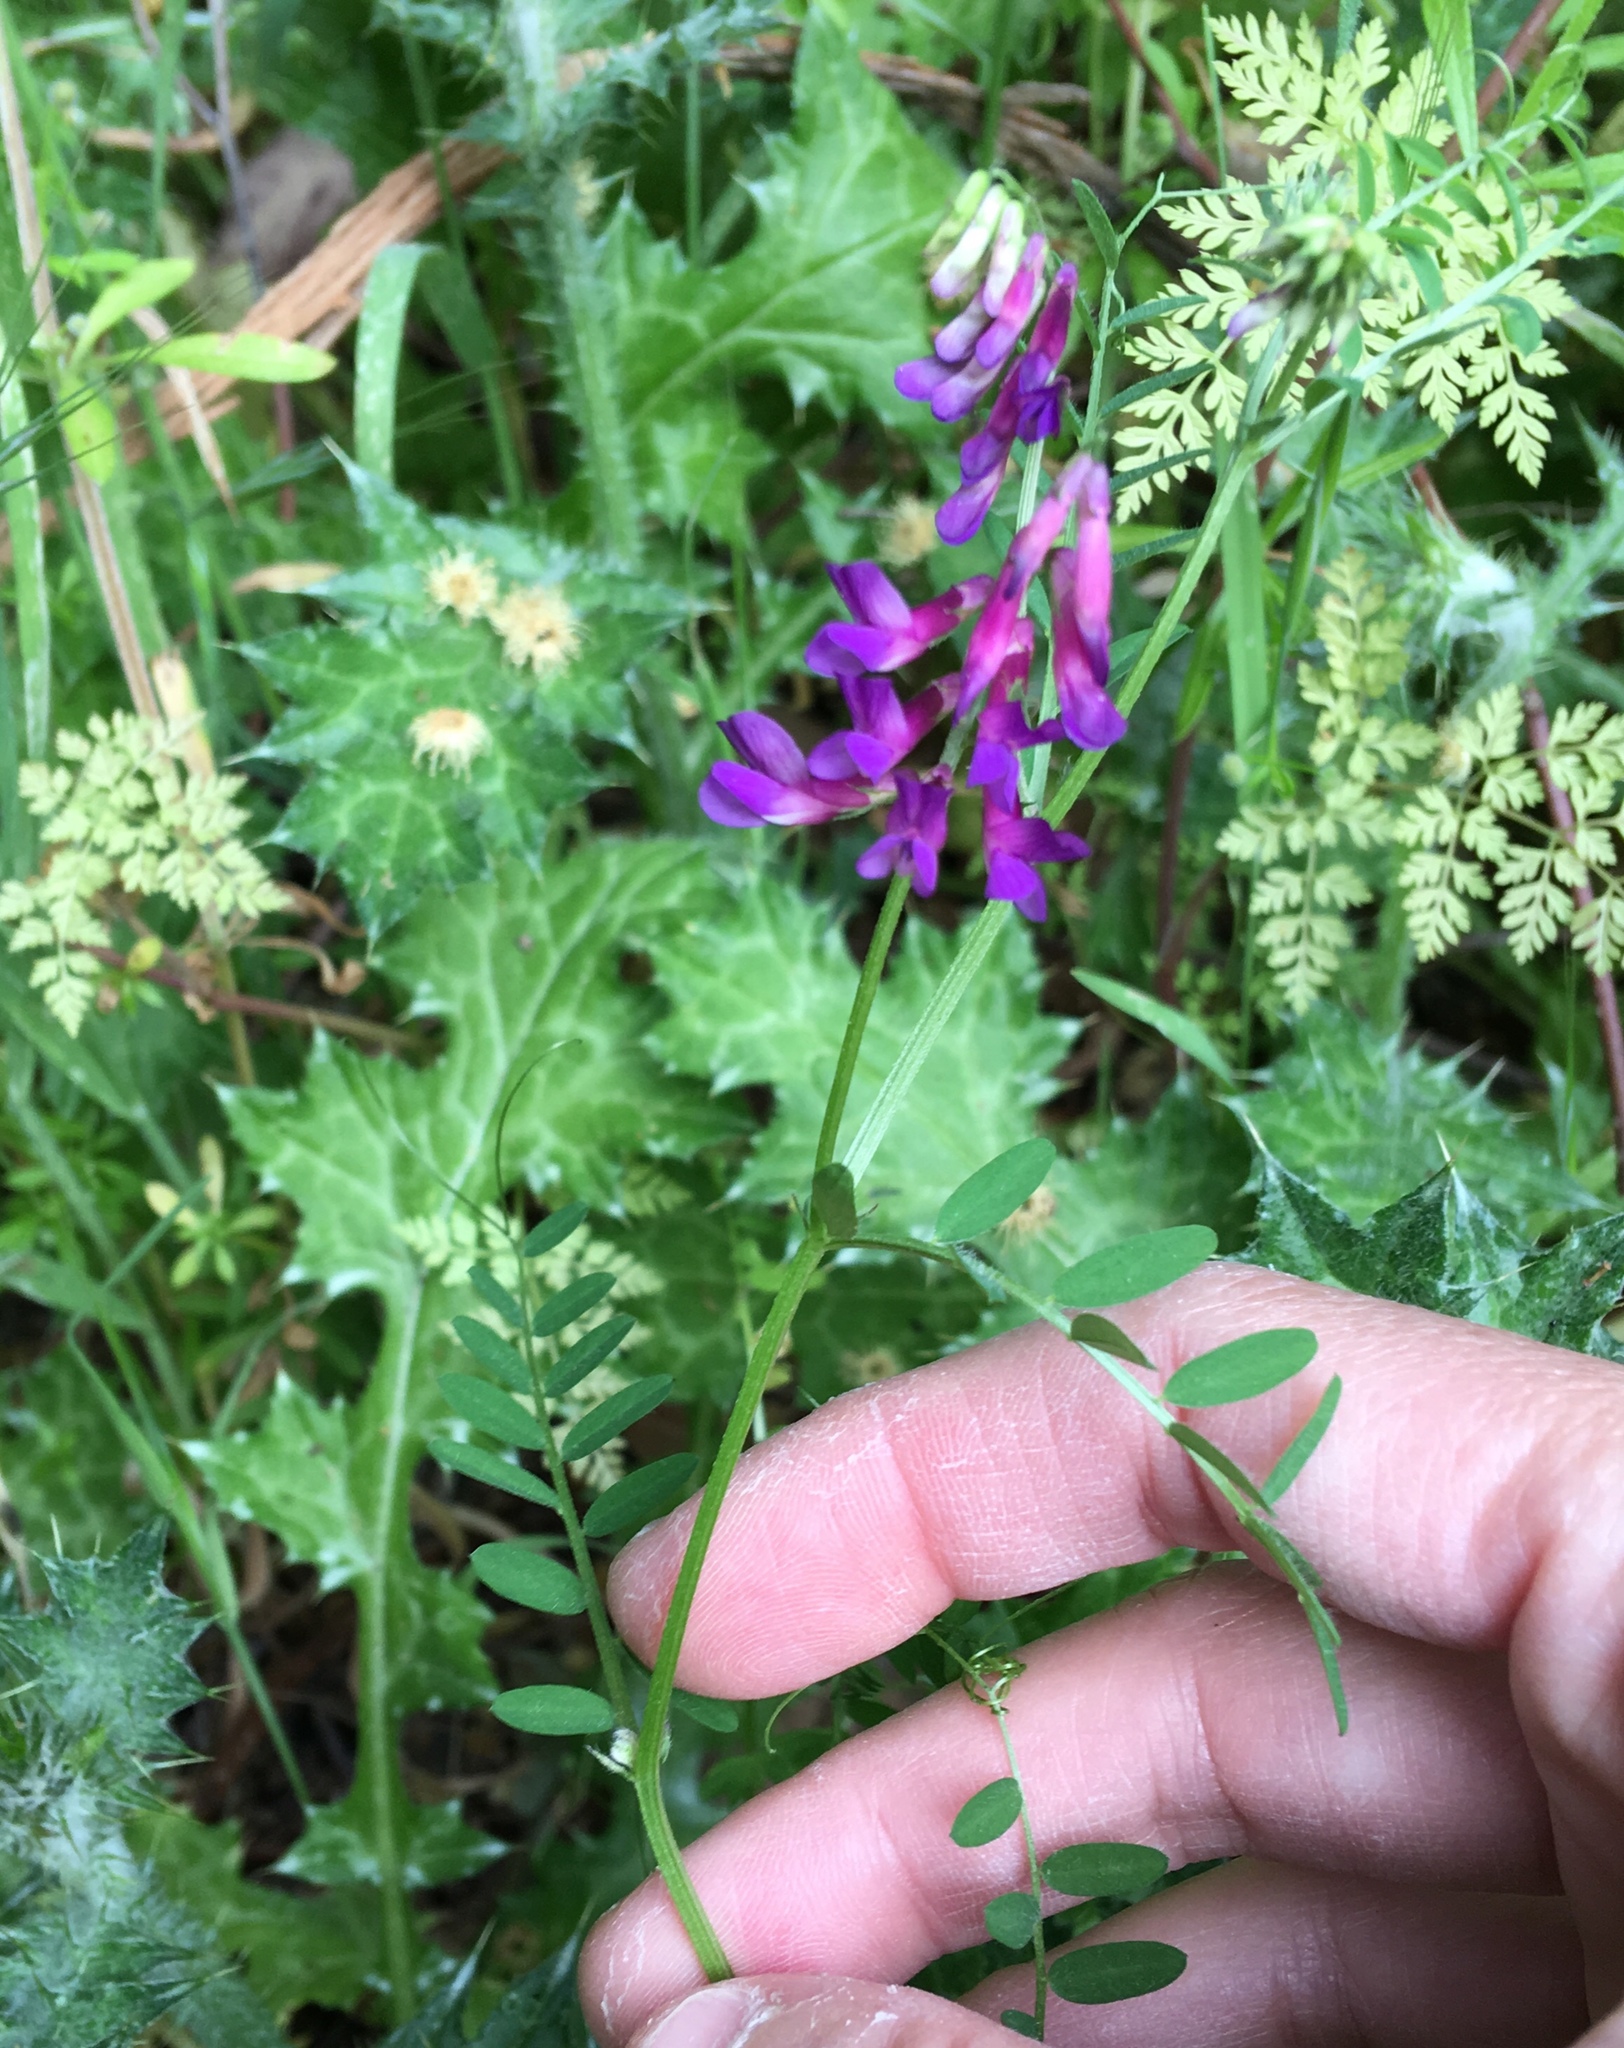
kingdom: Plantae
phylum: Tracheophyta
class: Magnoliopsida
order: Fabales
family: Fabaceae
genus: Vicia
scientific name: Vicia villosa
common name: Fodder vetch
